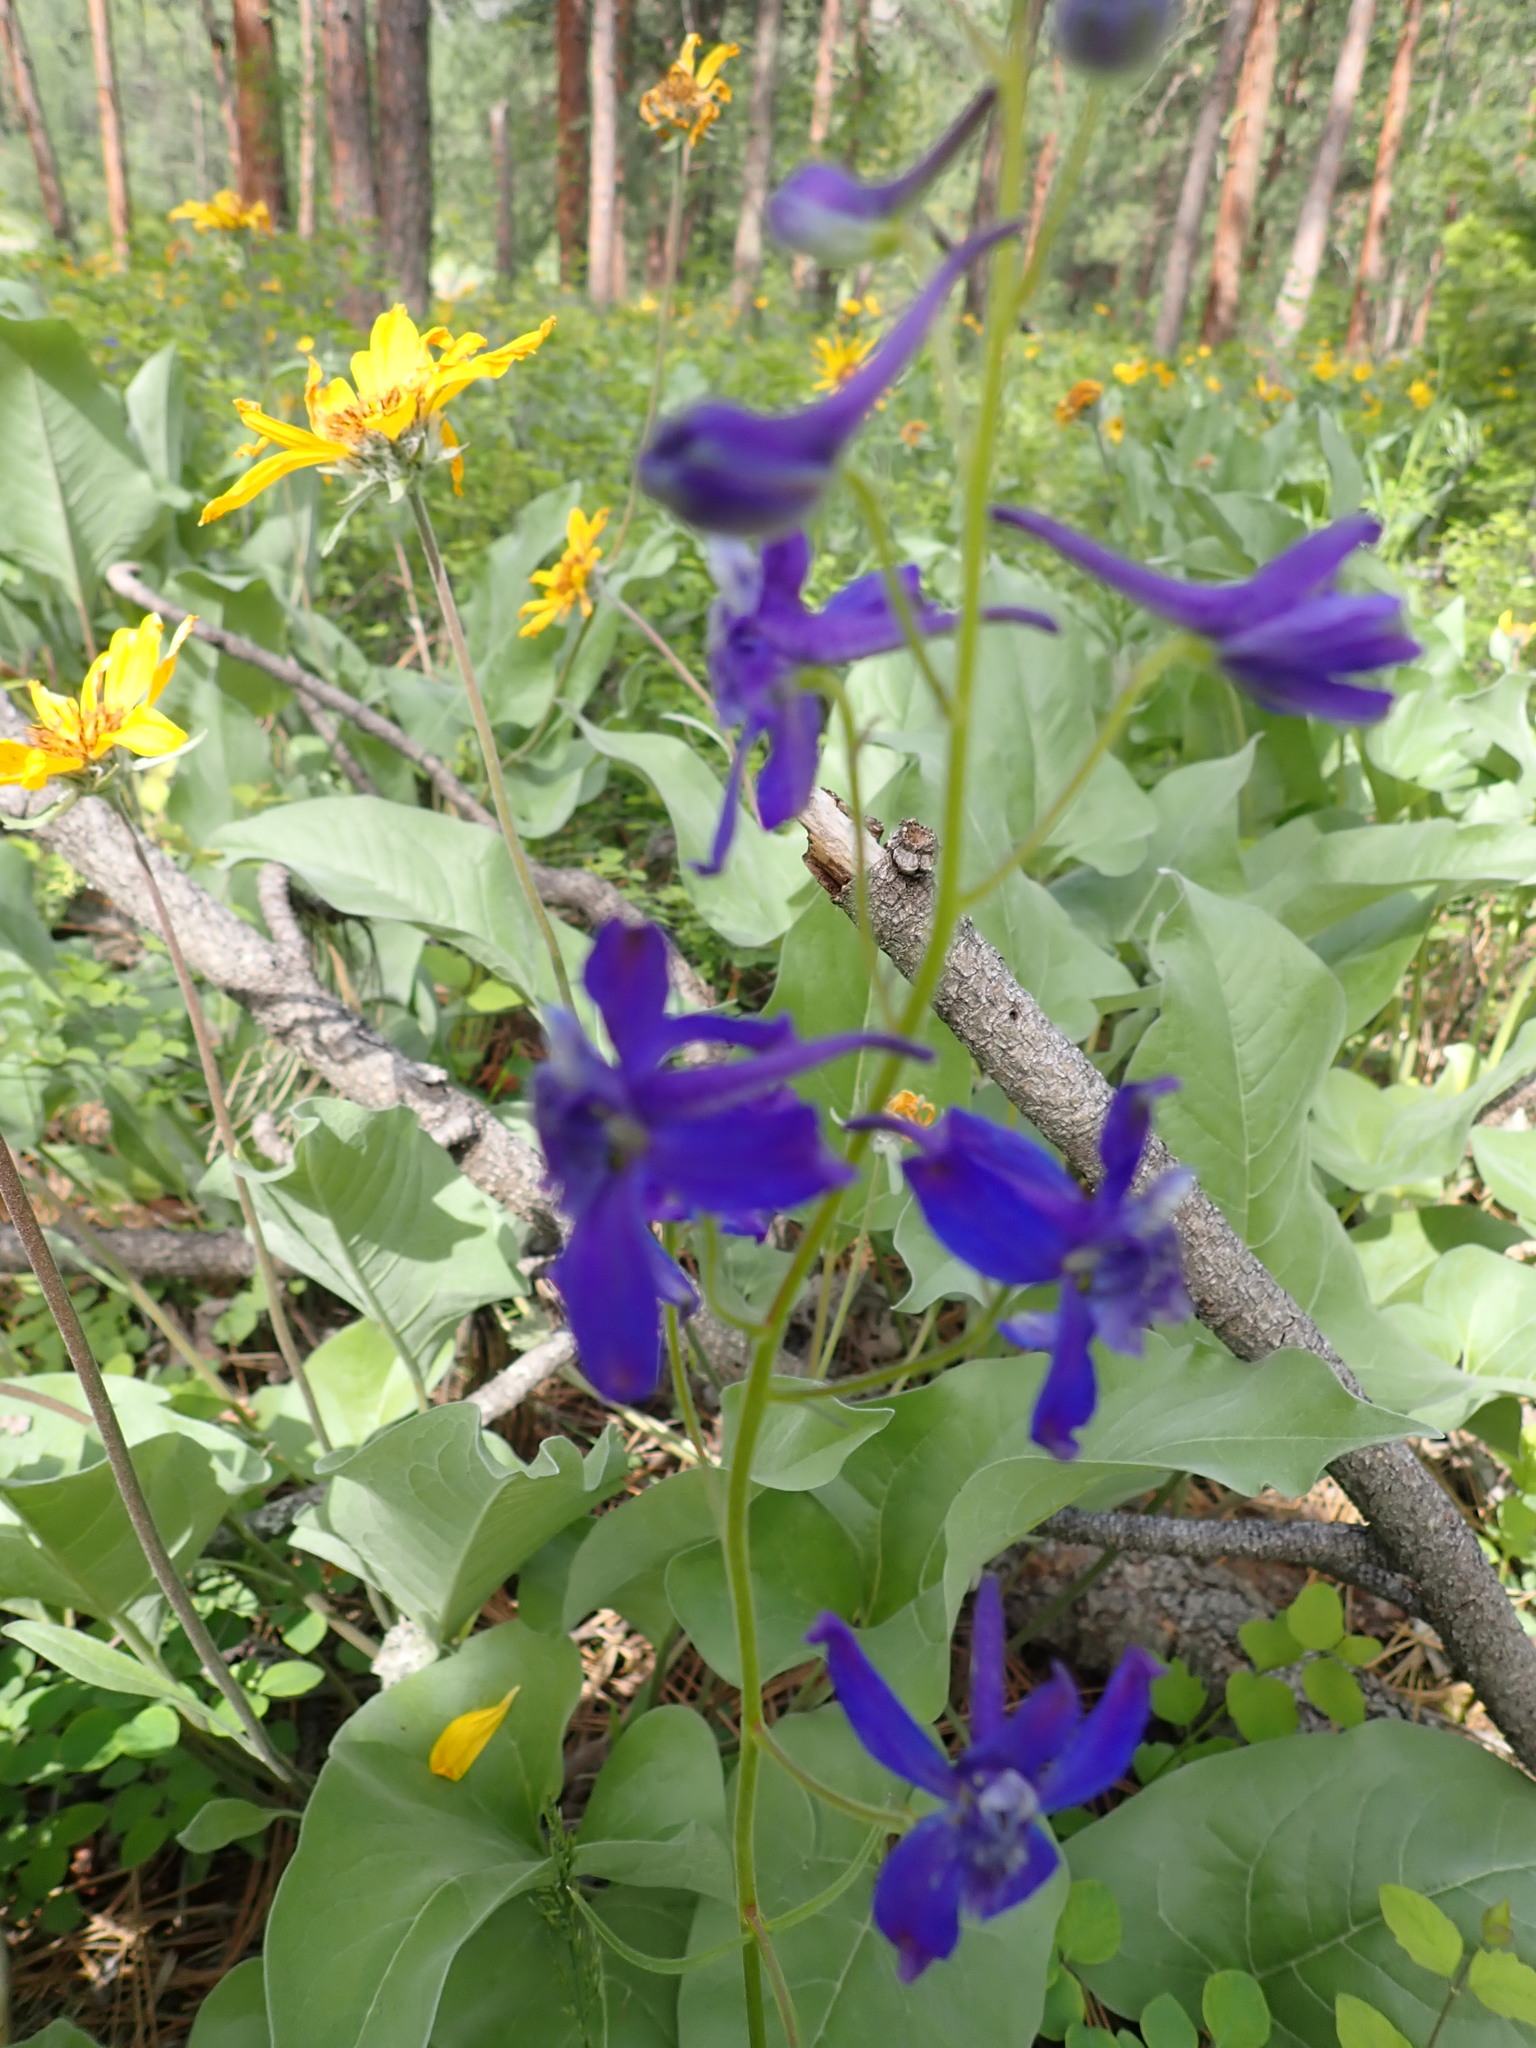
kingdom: Plantae
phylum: Tracheophyta
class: Magnoliopsida
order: Ranunculales
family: Ranunculaceae
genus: Delphinium
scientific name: Delphinium nuttallianum
